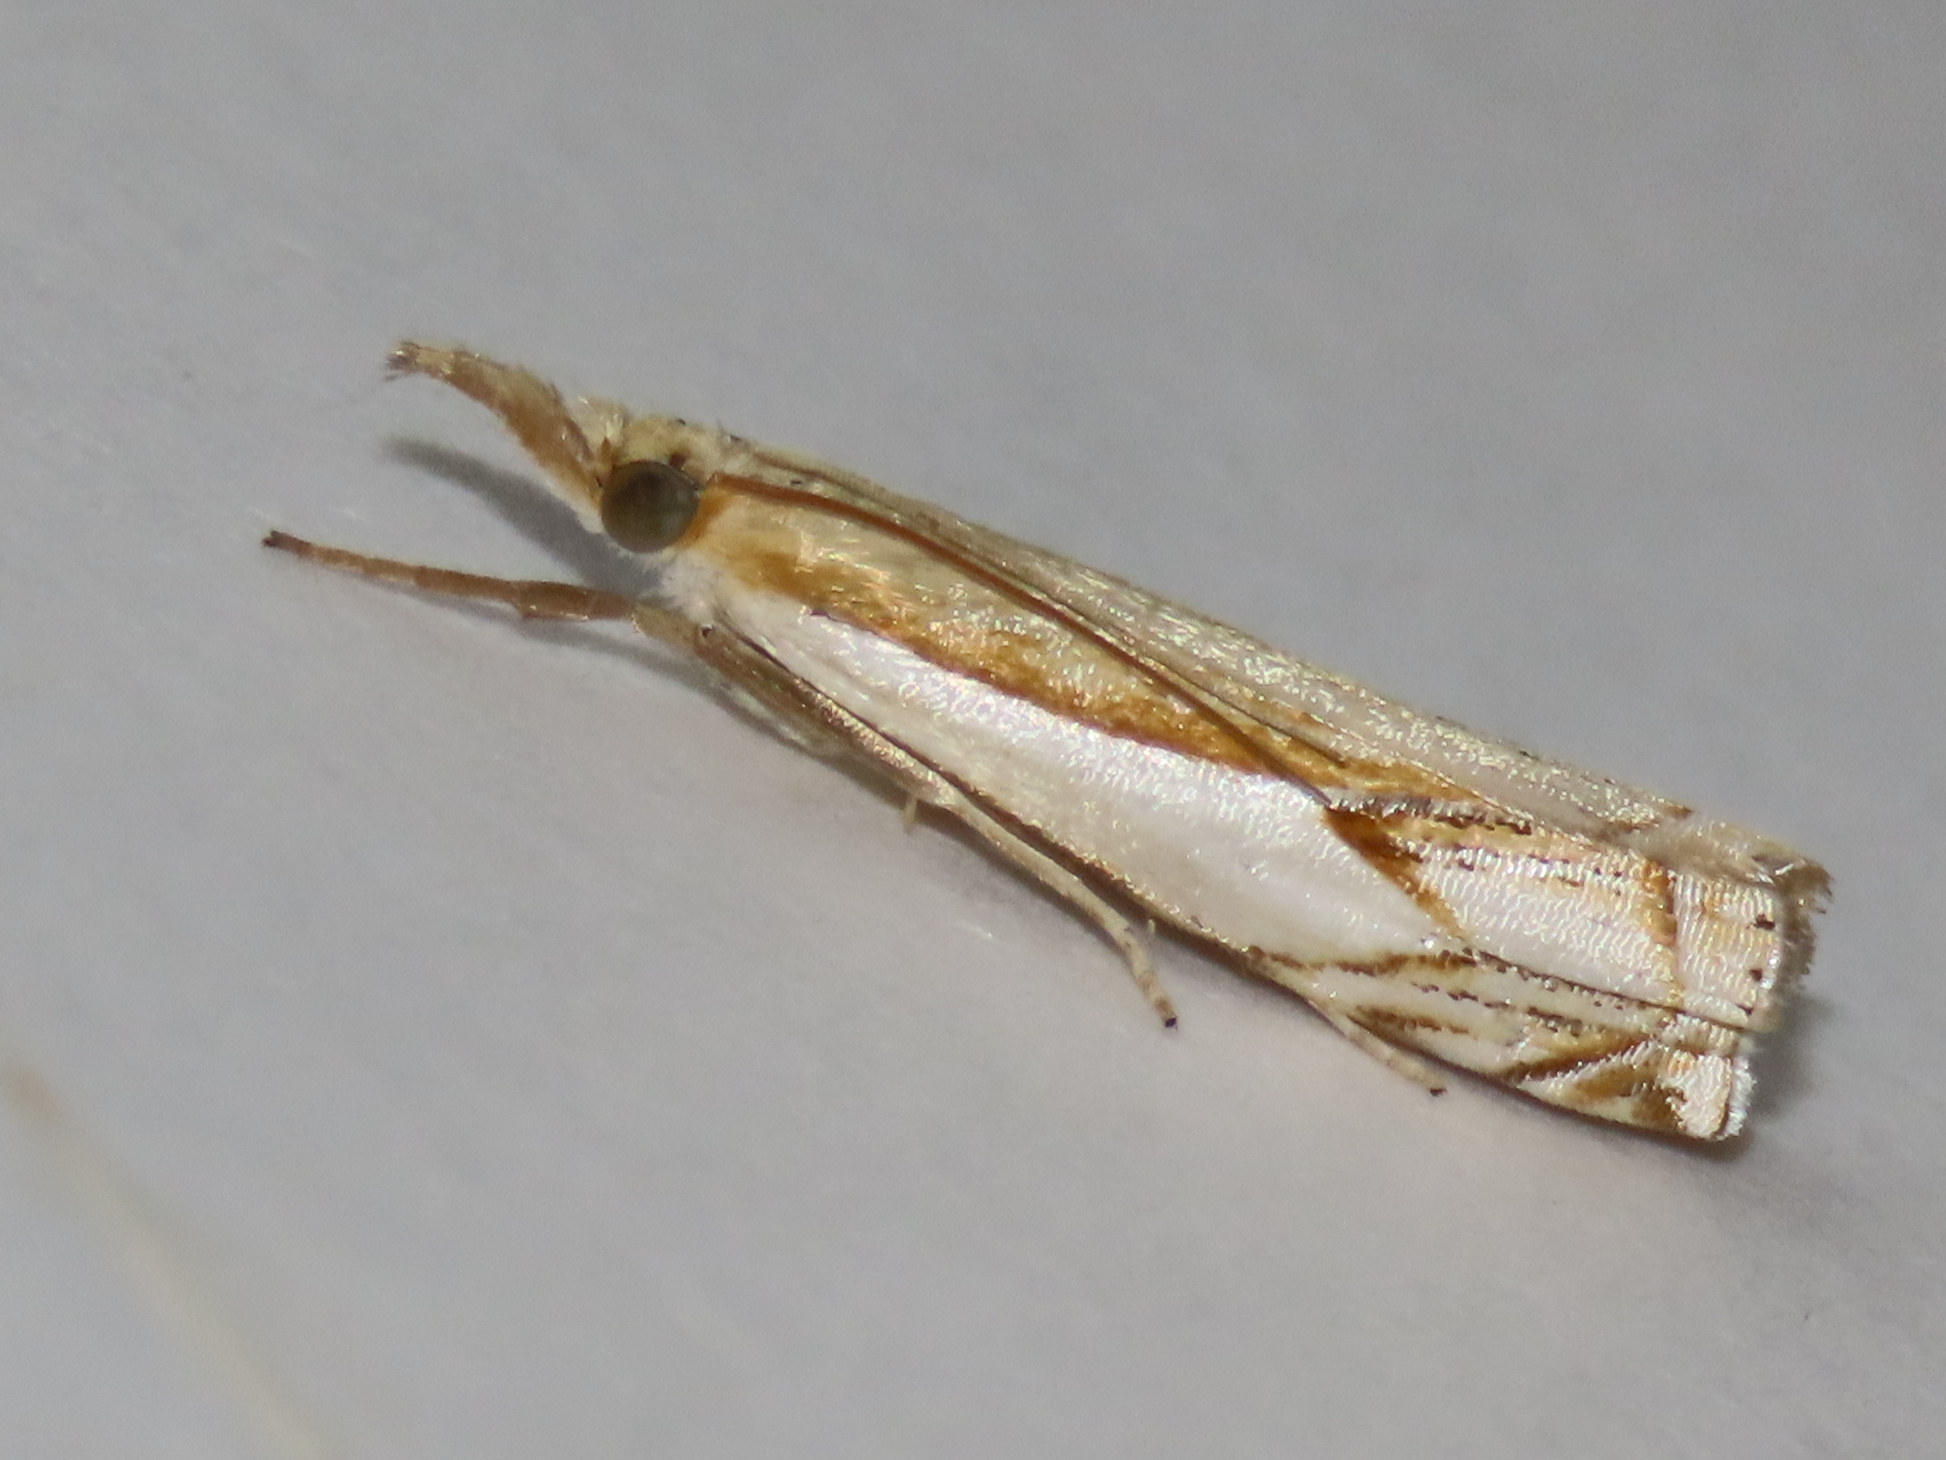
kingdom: Animalia
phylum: Arthropoda
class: Insecta
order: Lepidoptera
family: Crambidae
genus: Crambus
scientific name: Crambus agitatellus
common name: Double-banded grass-veneer
